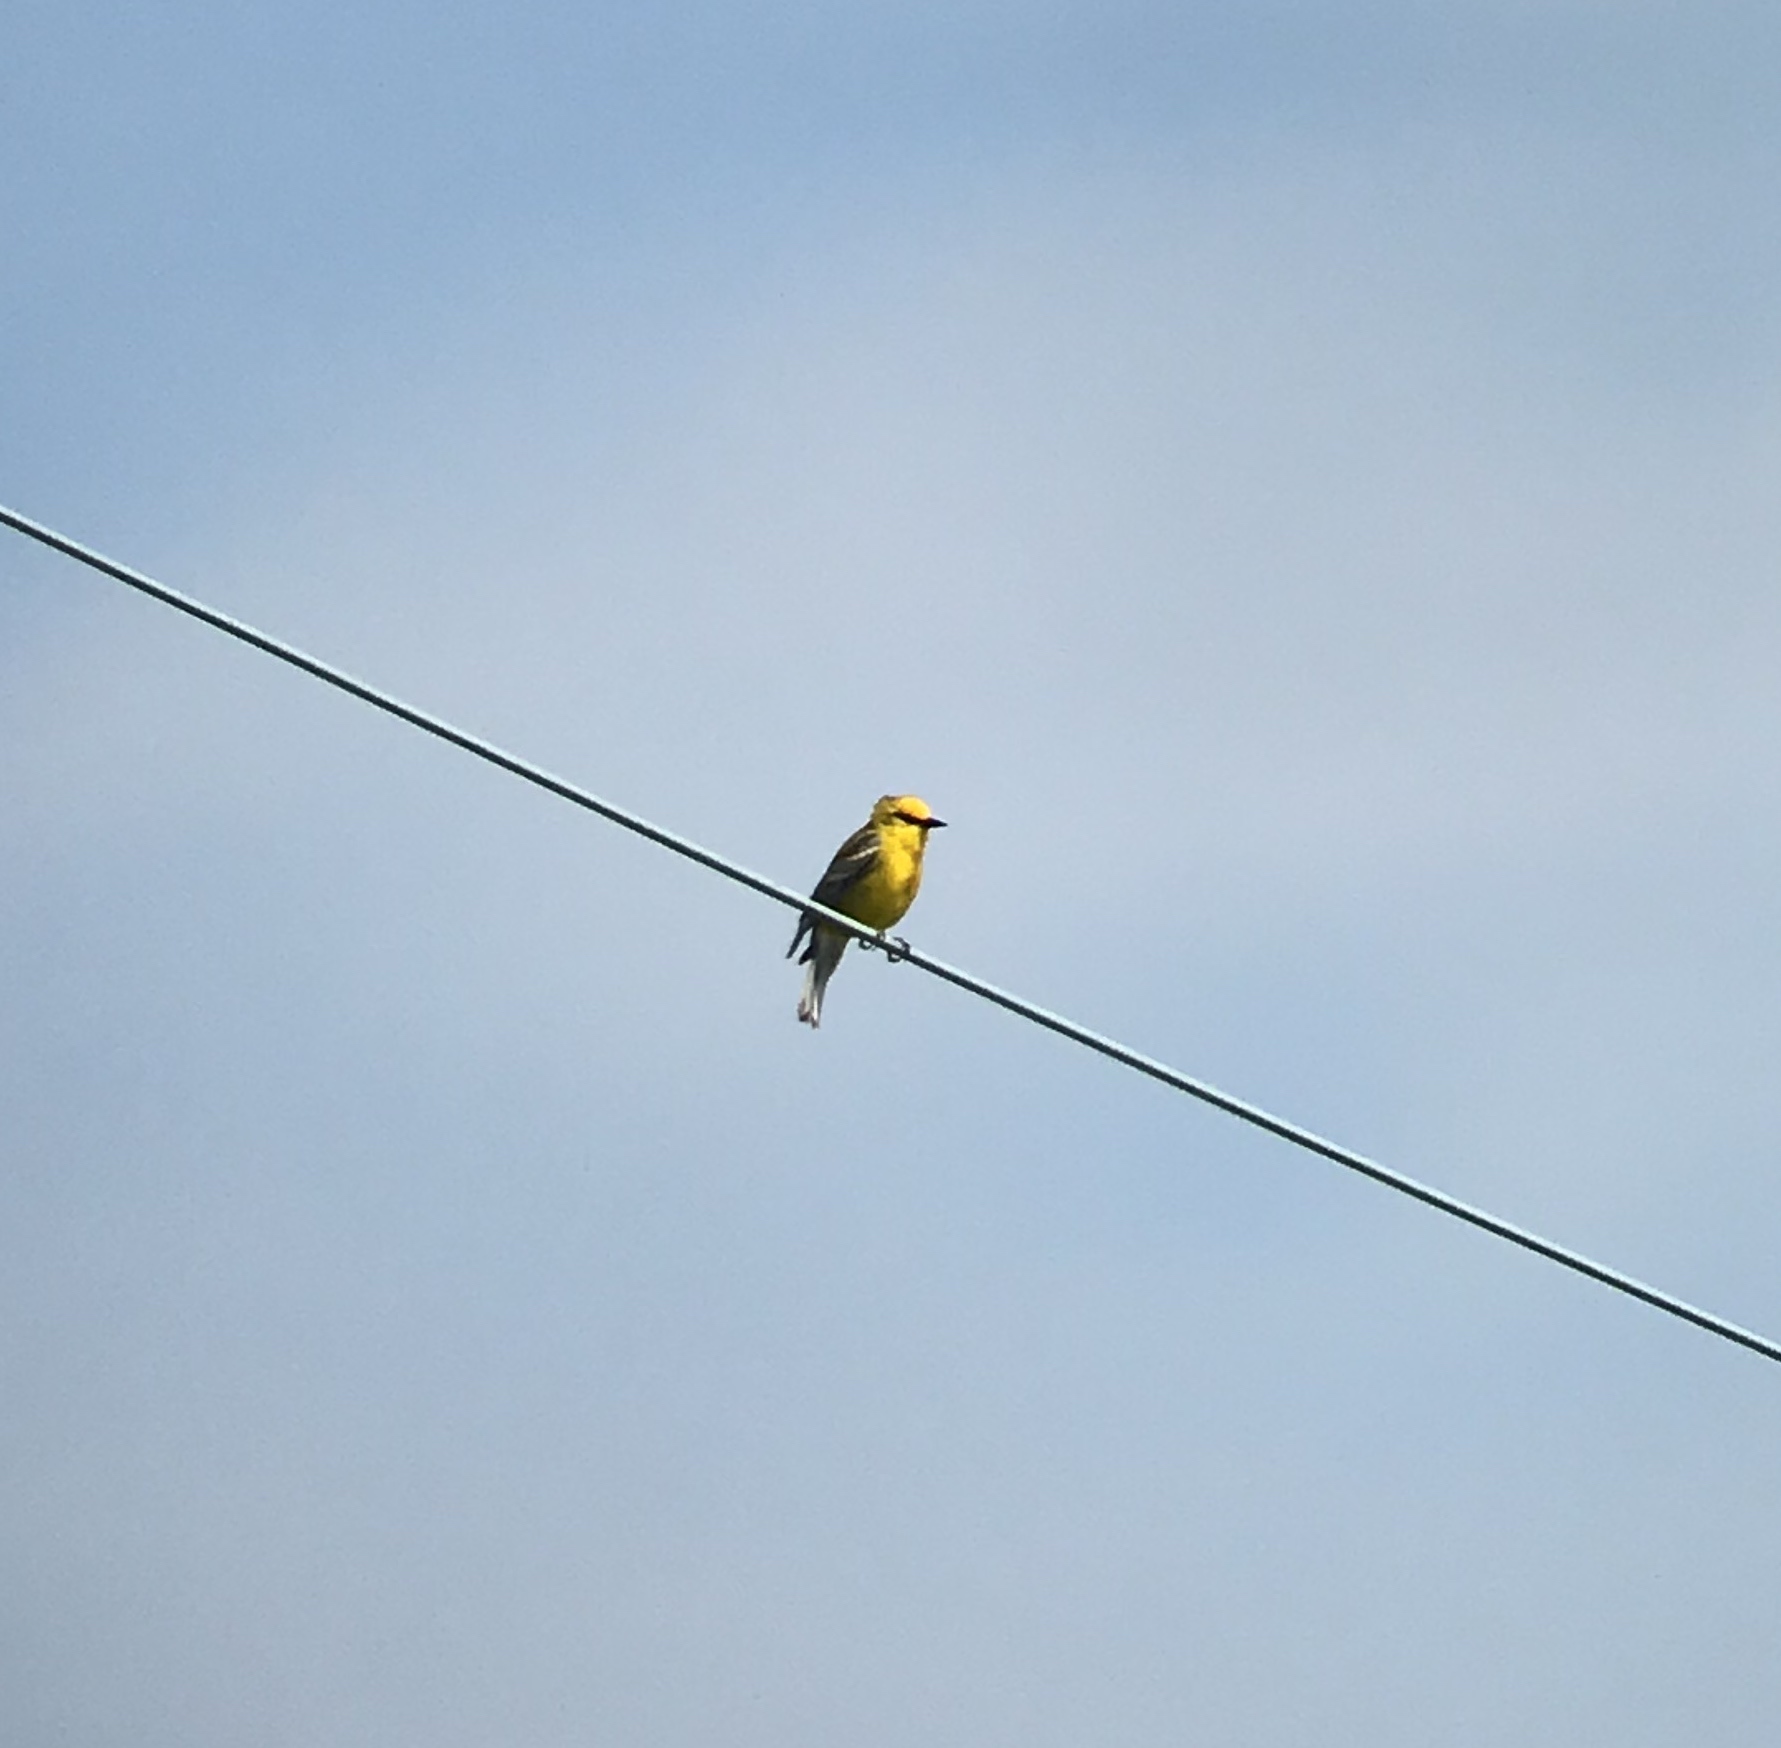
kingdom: Animalia
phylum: Chordata
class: Aves
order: Passeriformes
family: Parulidae
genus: Vermivora
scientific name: Vermivora cyanoptera
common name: Blue-winged warbler
